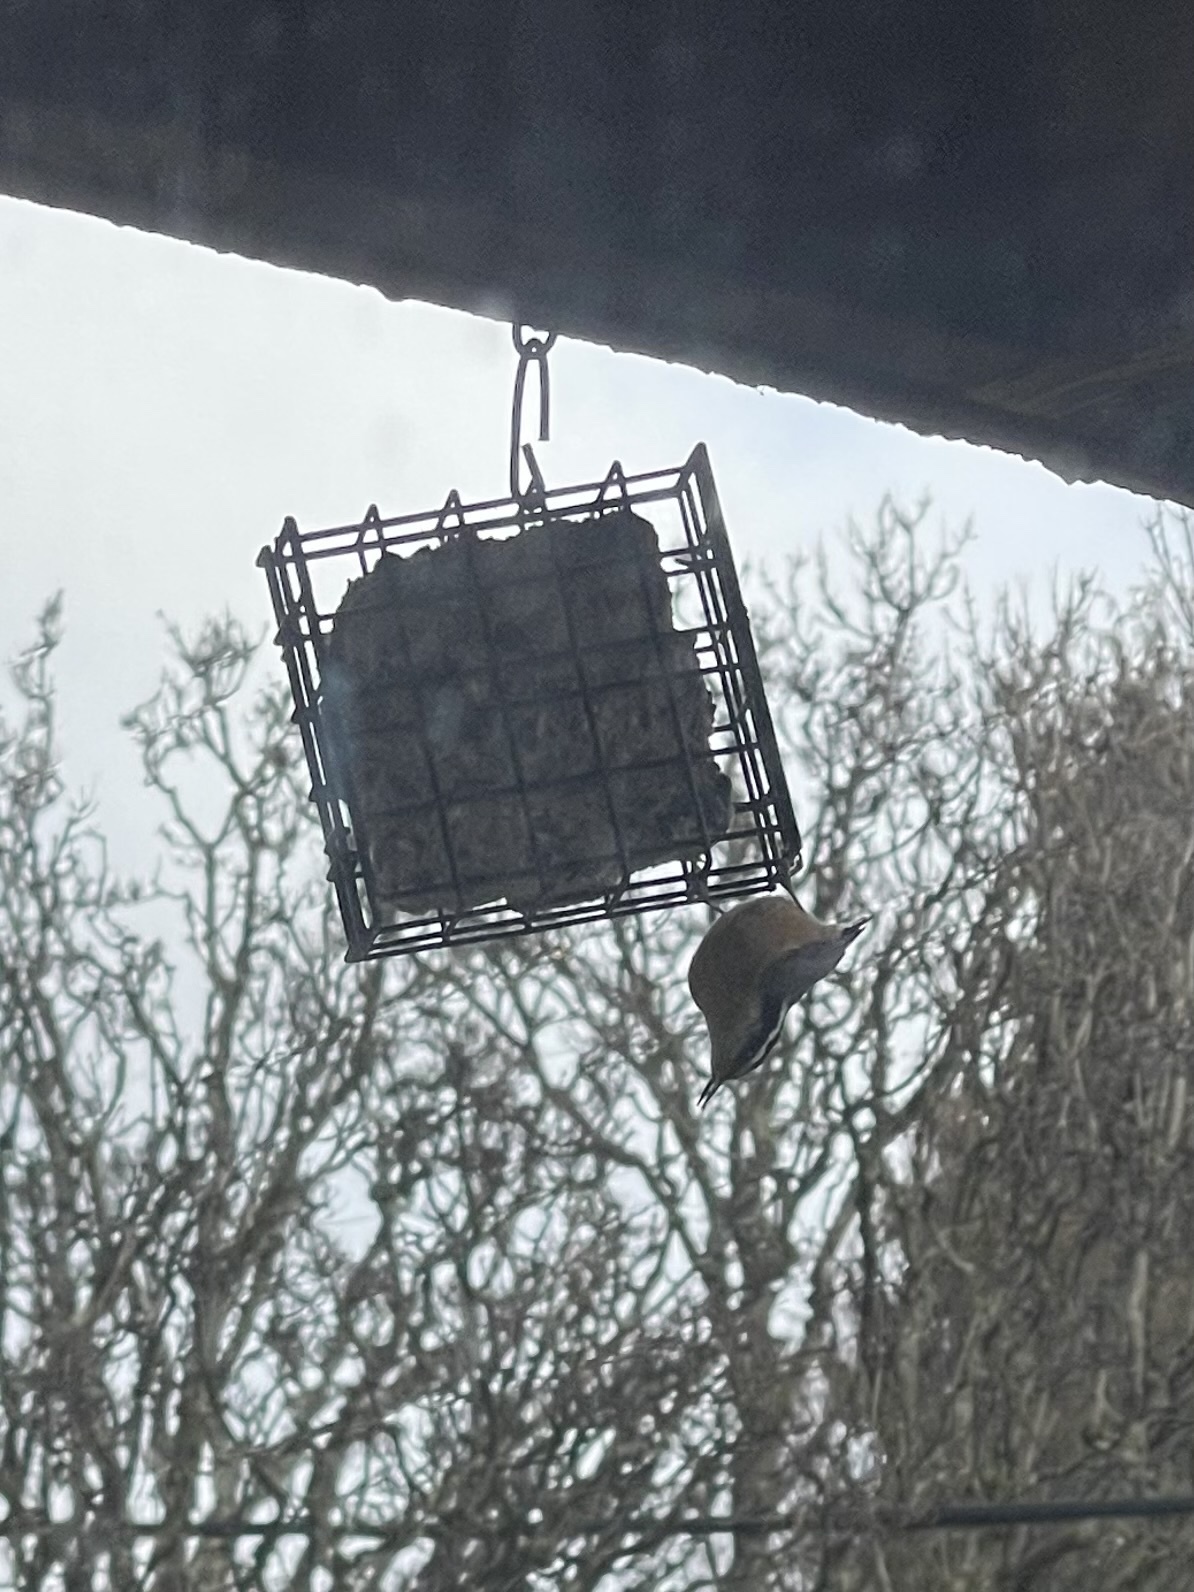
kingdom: Animalia
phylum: Chordata
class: Aves
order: Passeriformes
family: Sittidae
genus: Sitta
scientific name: Sitta canadensis
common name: Red-breasted nuthatch
